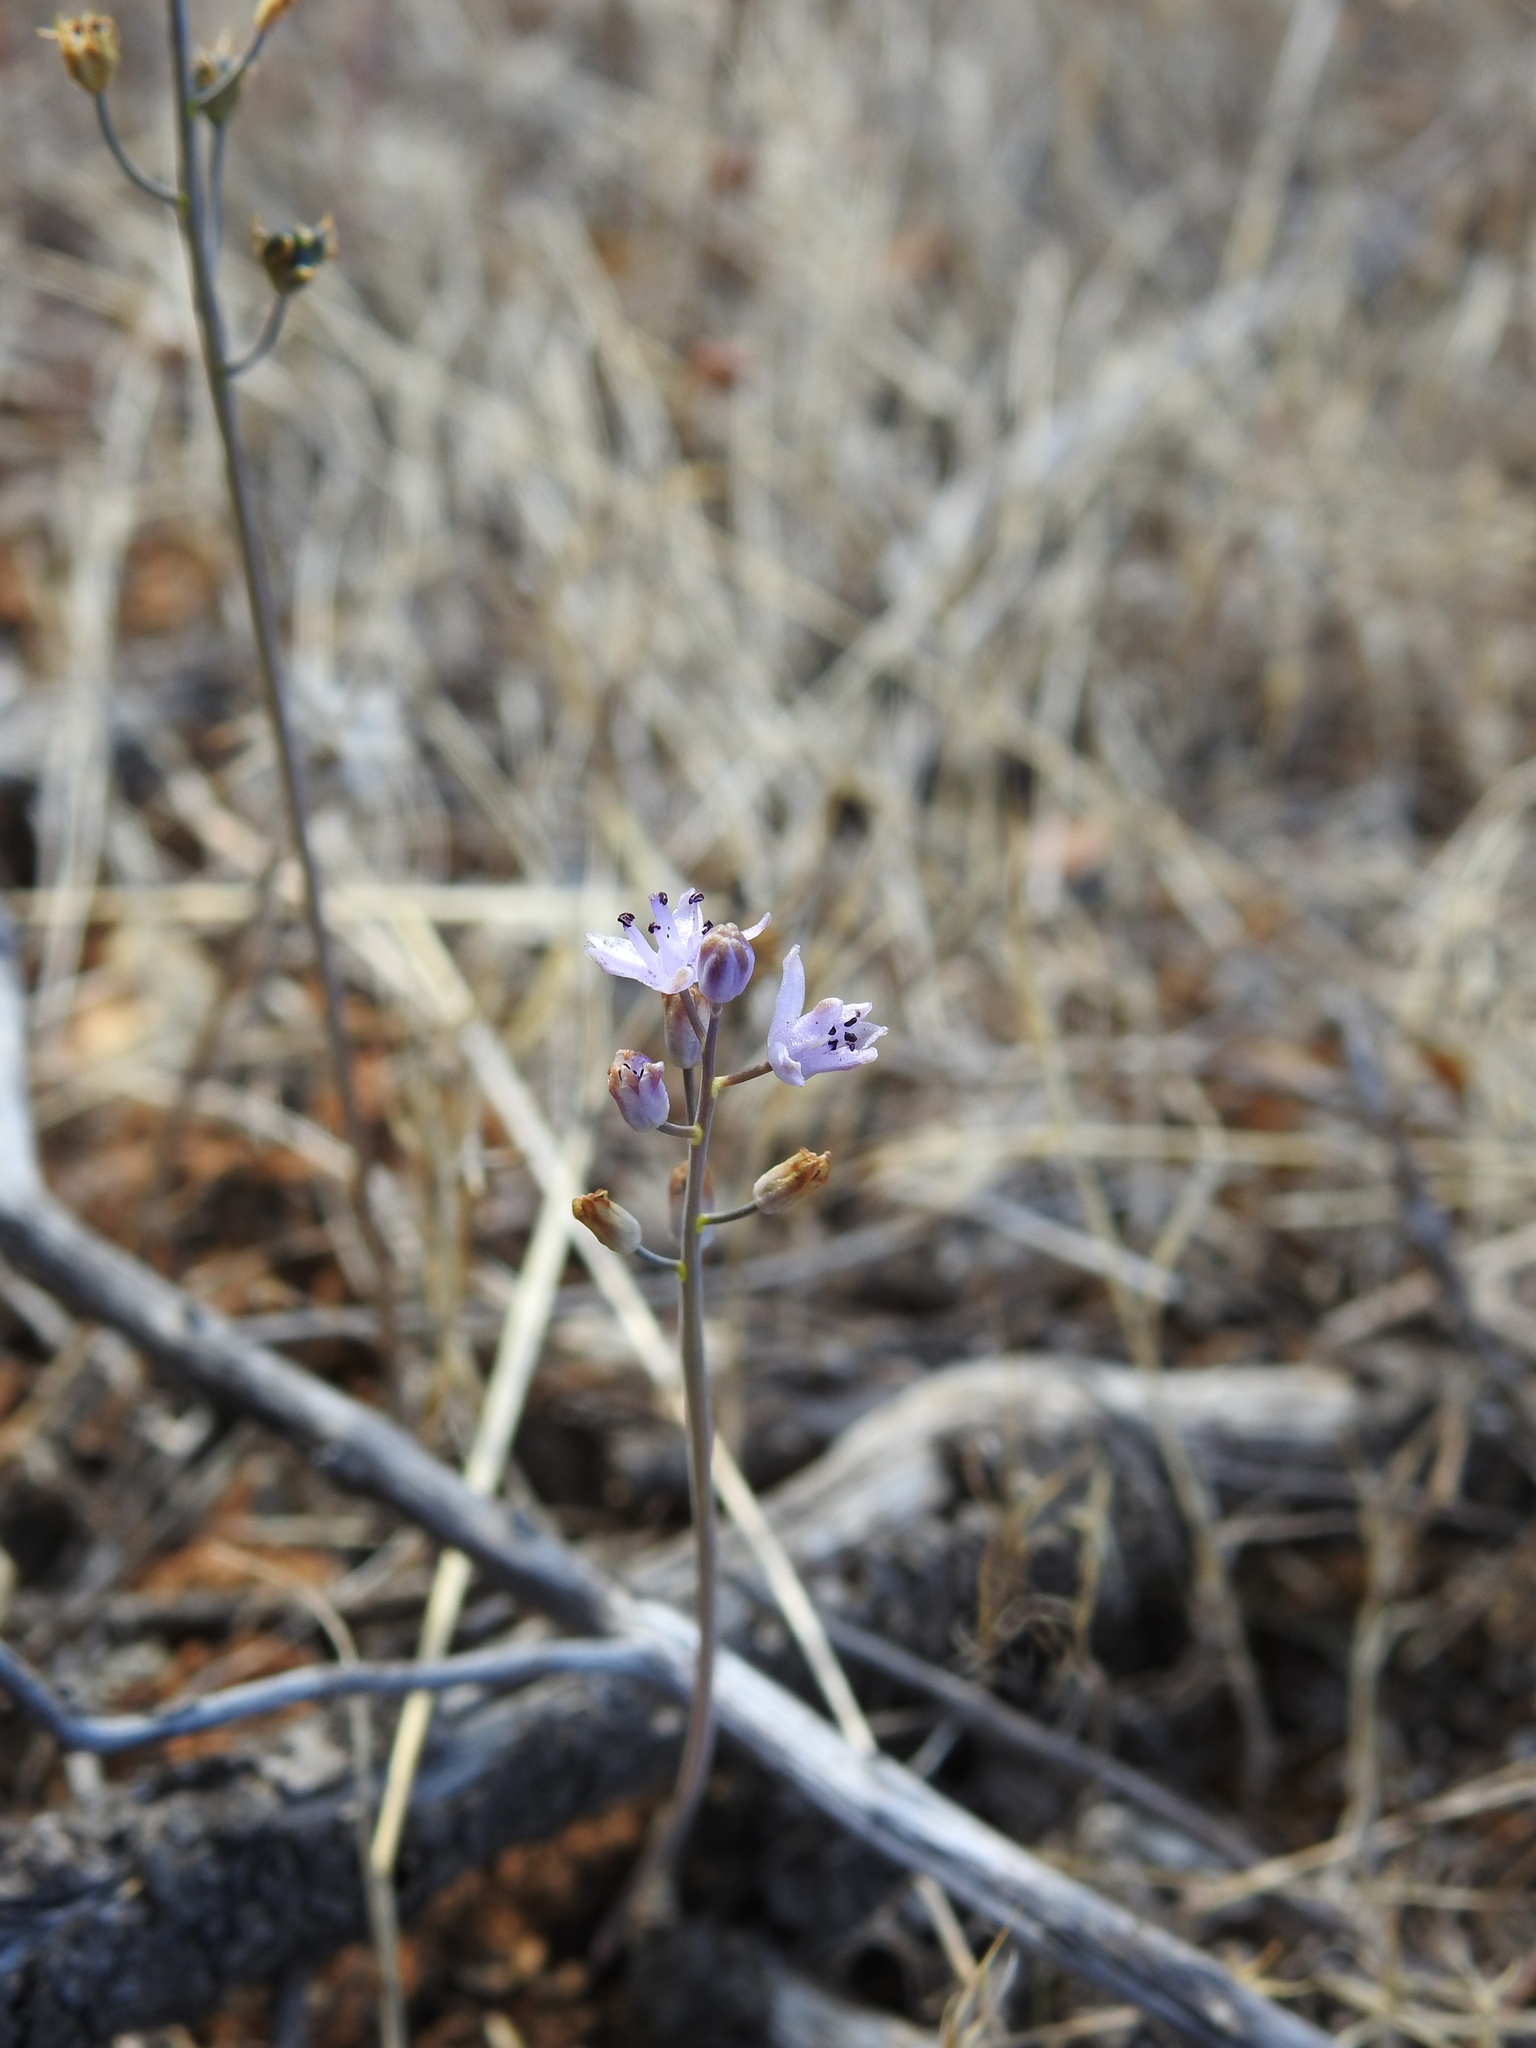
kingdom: Plantae
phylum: Tracheophyta
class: Liliopsida
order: Asparagales
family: Asparagaceae
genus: Prospero
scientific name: Prospero autumnale
